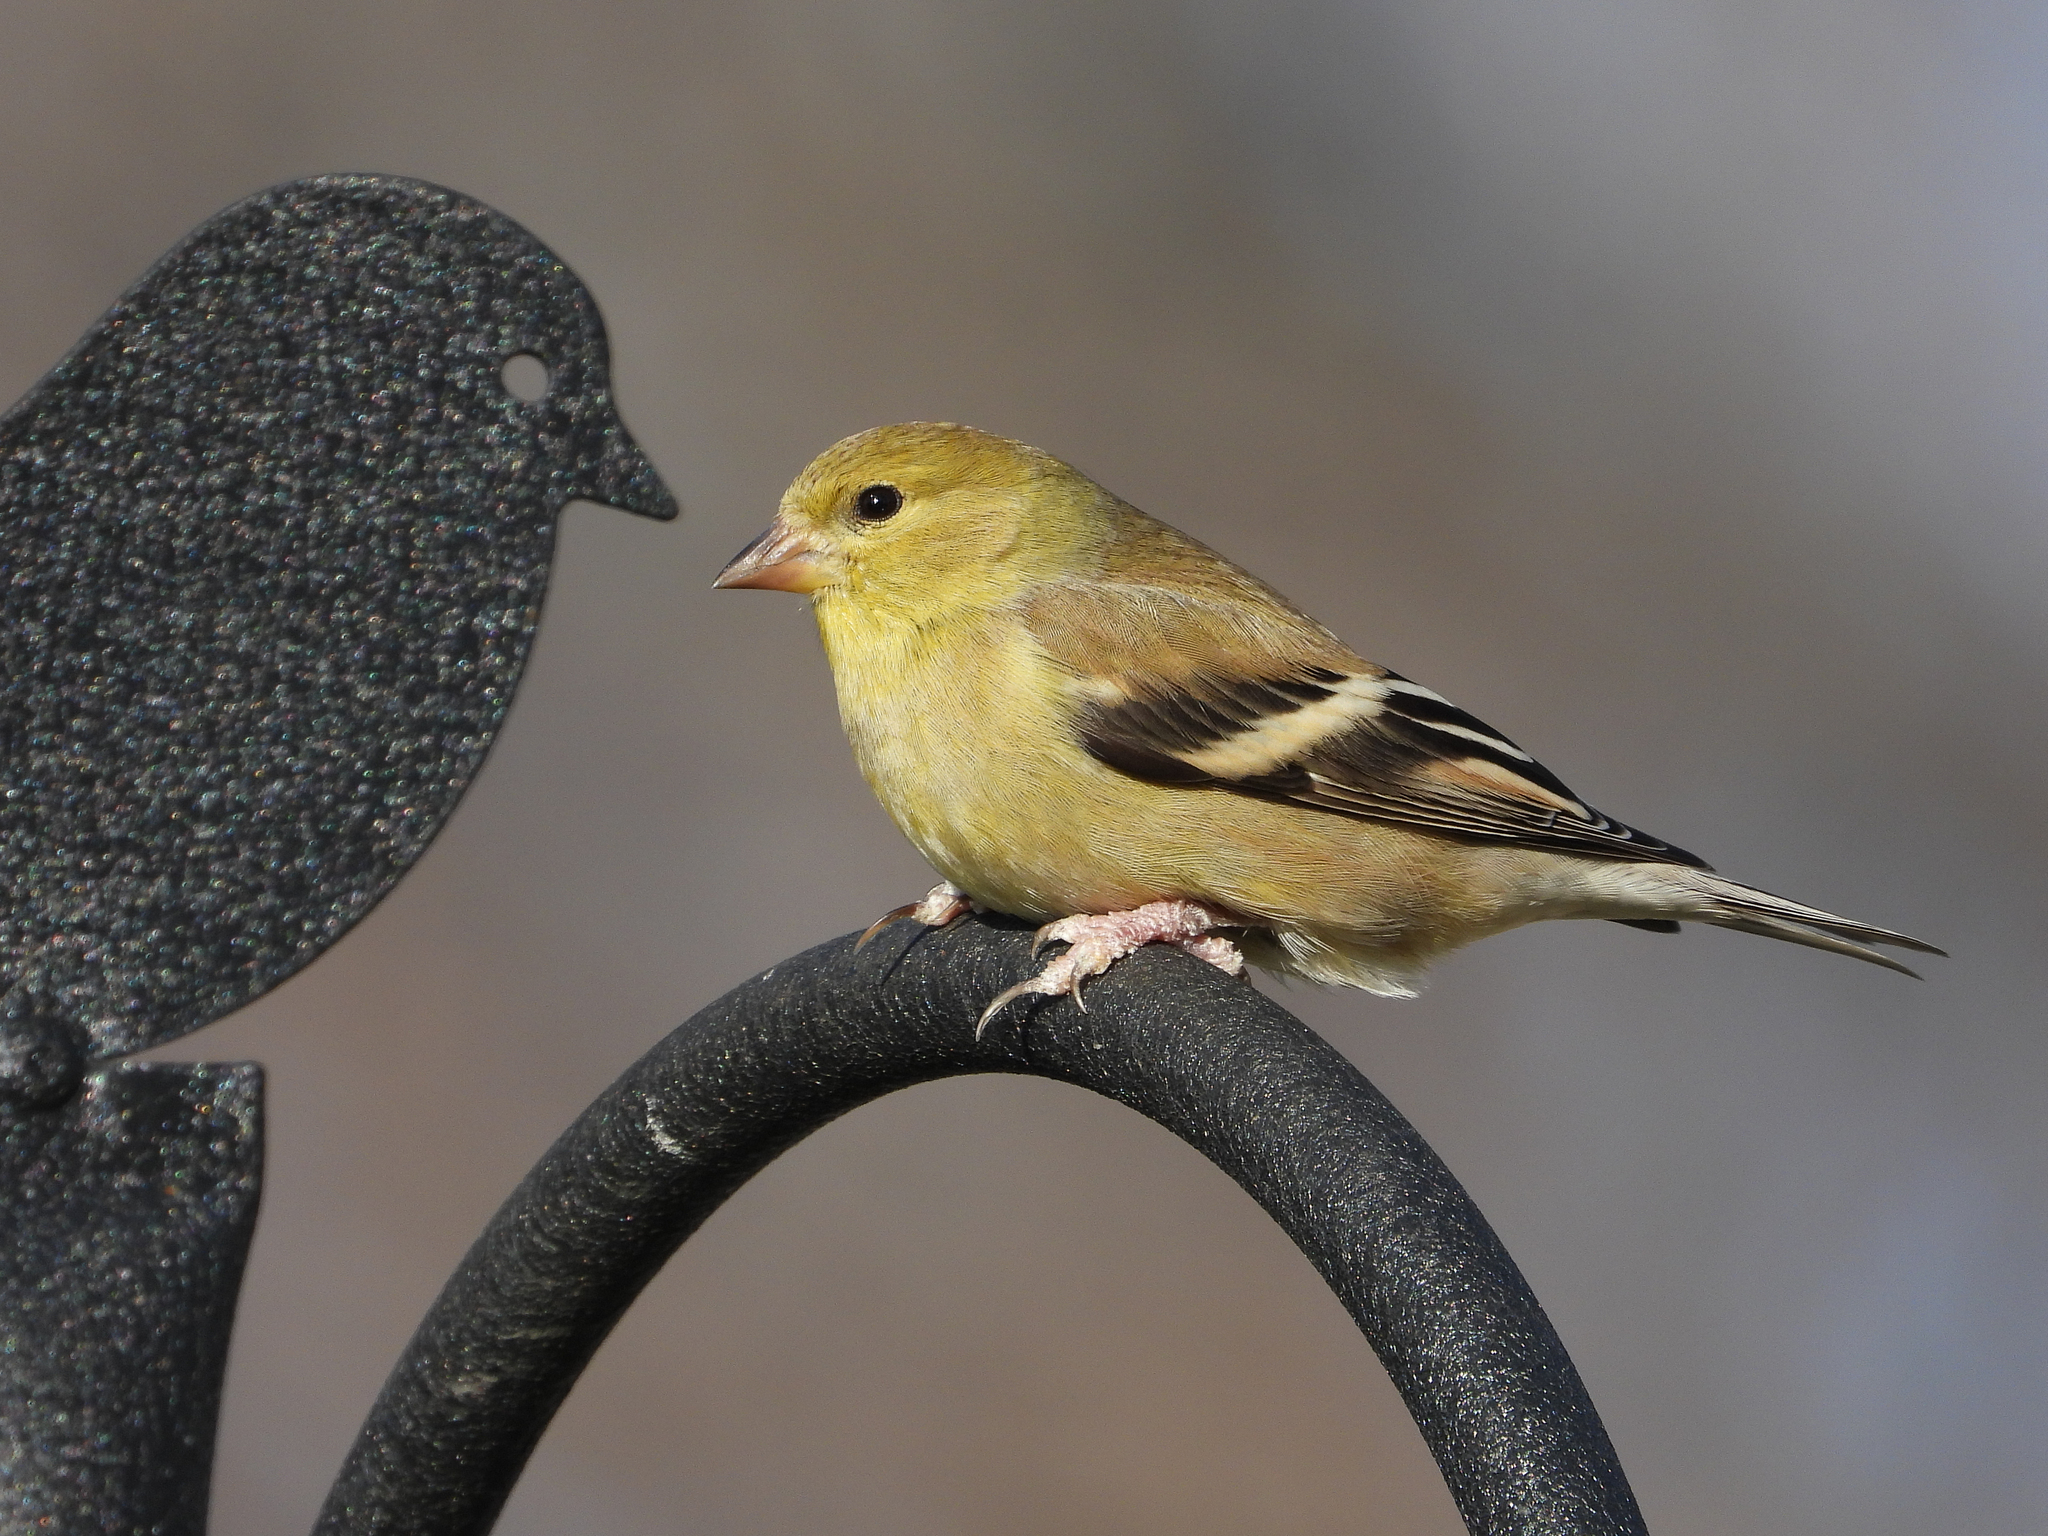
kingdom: Animalia
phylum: Chordata
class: Aves
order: Passeriformes
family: Fringillidae
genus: Spinus
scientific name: Spinus tristis
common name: American goldfinch
